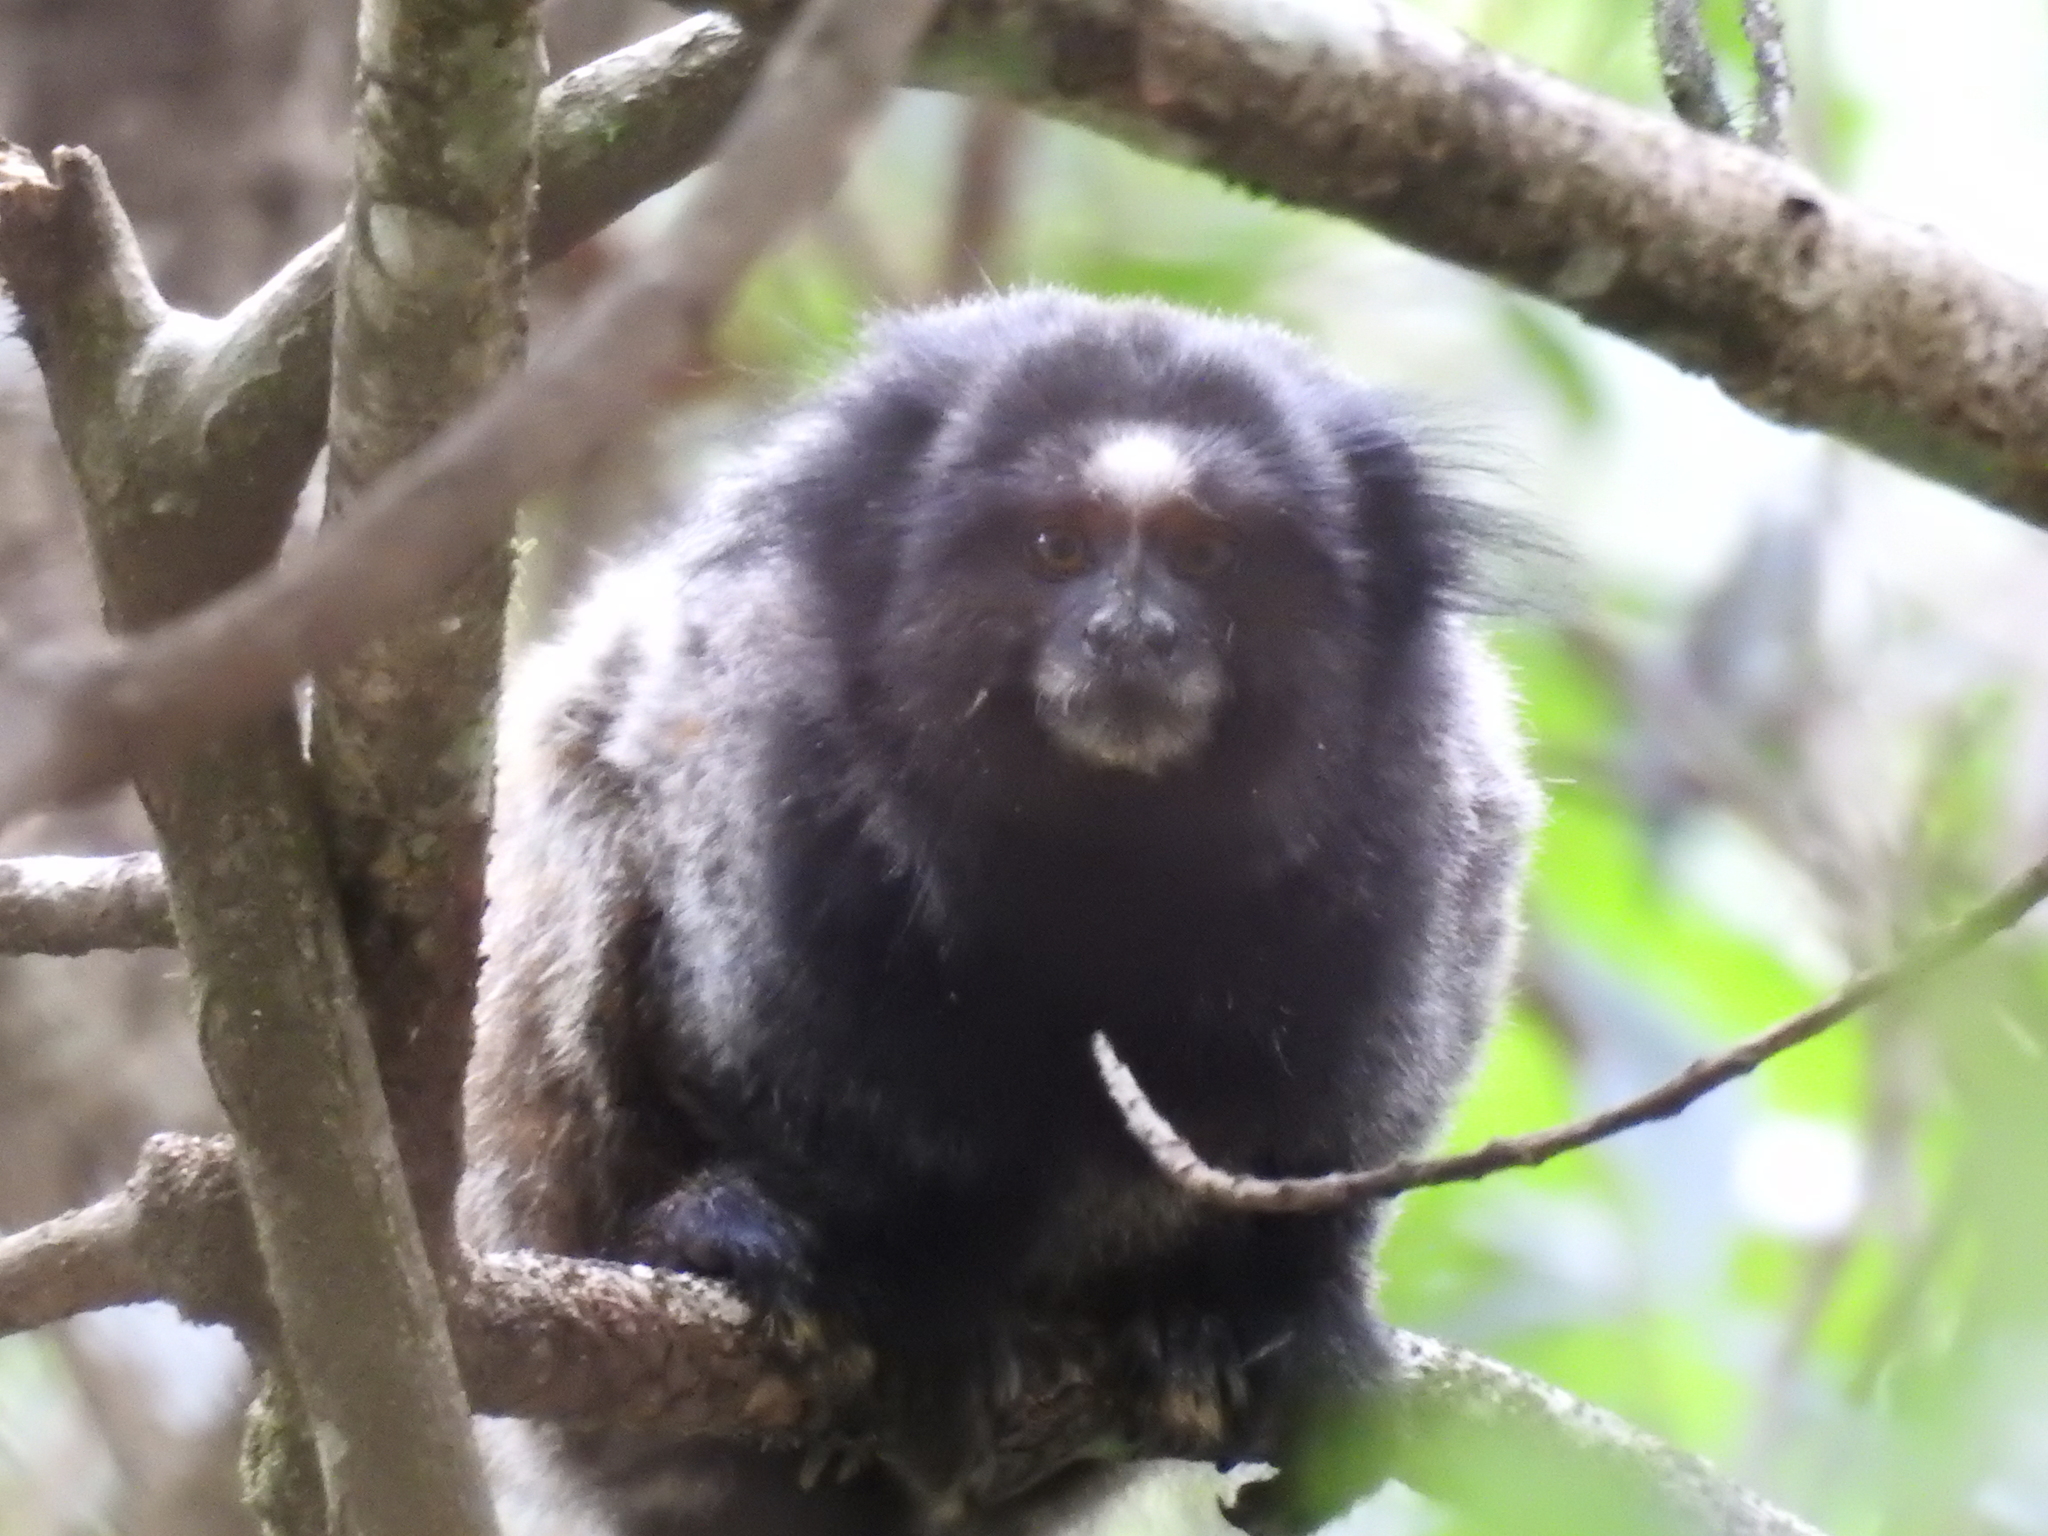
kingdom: Animalia
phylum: Chordata
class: Mammalia
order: Primates
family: Callitrichidae
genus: Callithrix
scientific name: Callithrix penicillata
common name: Black-tufted marmoset
